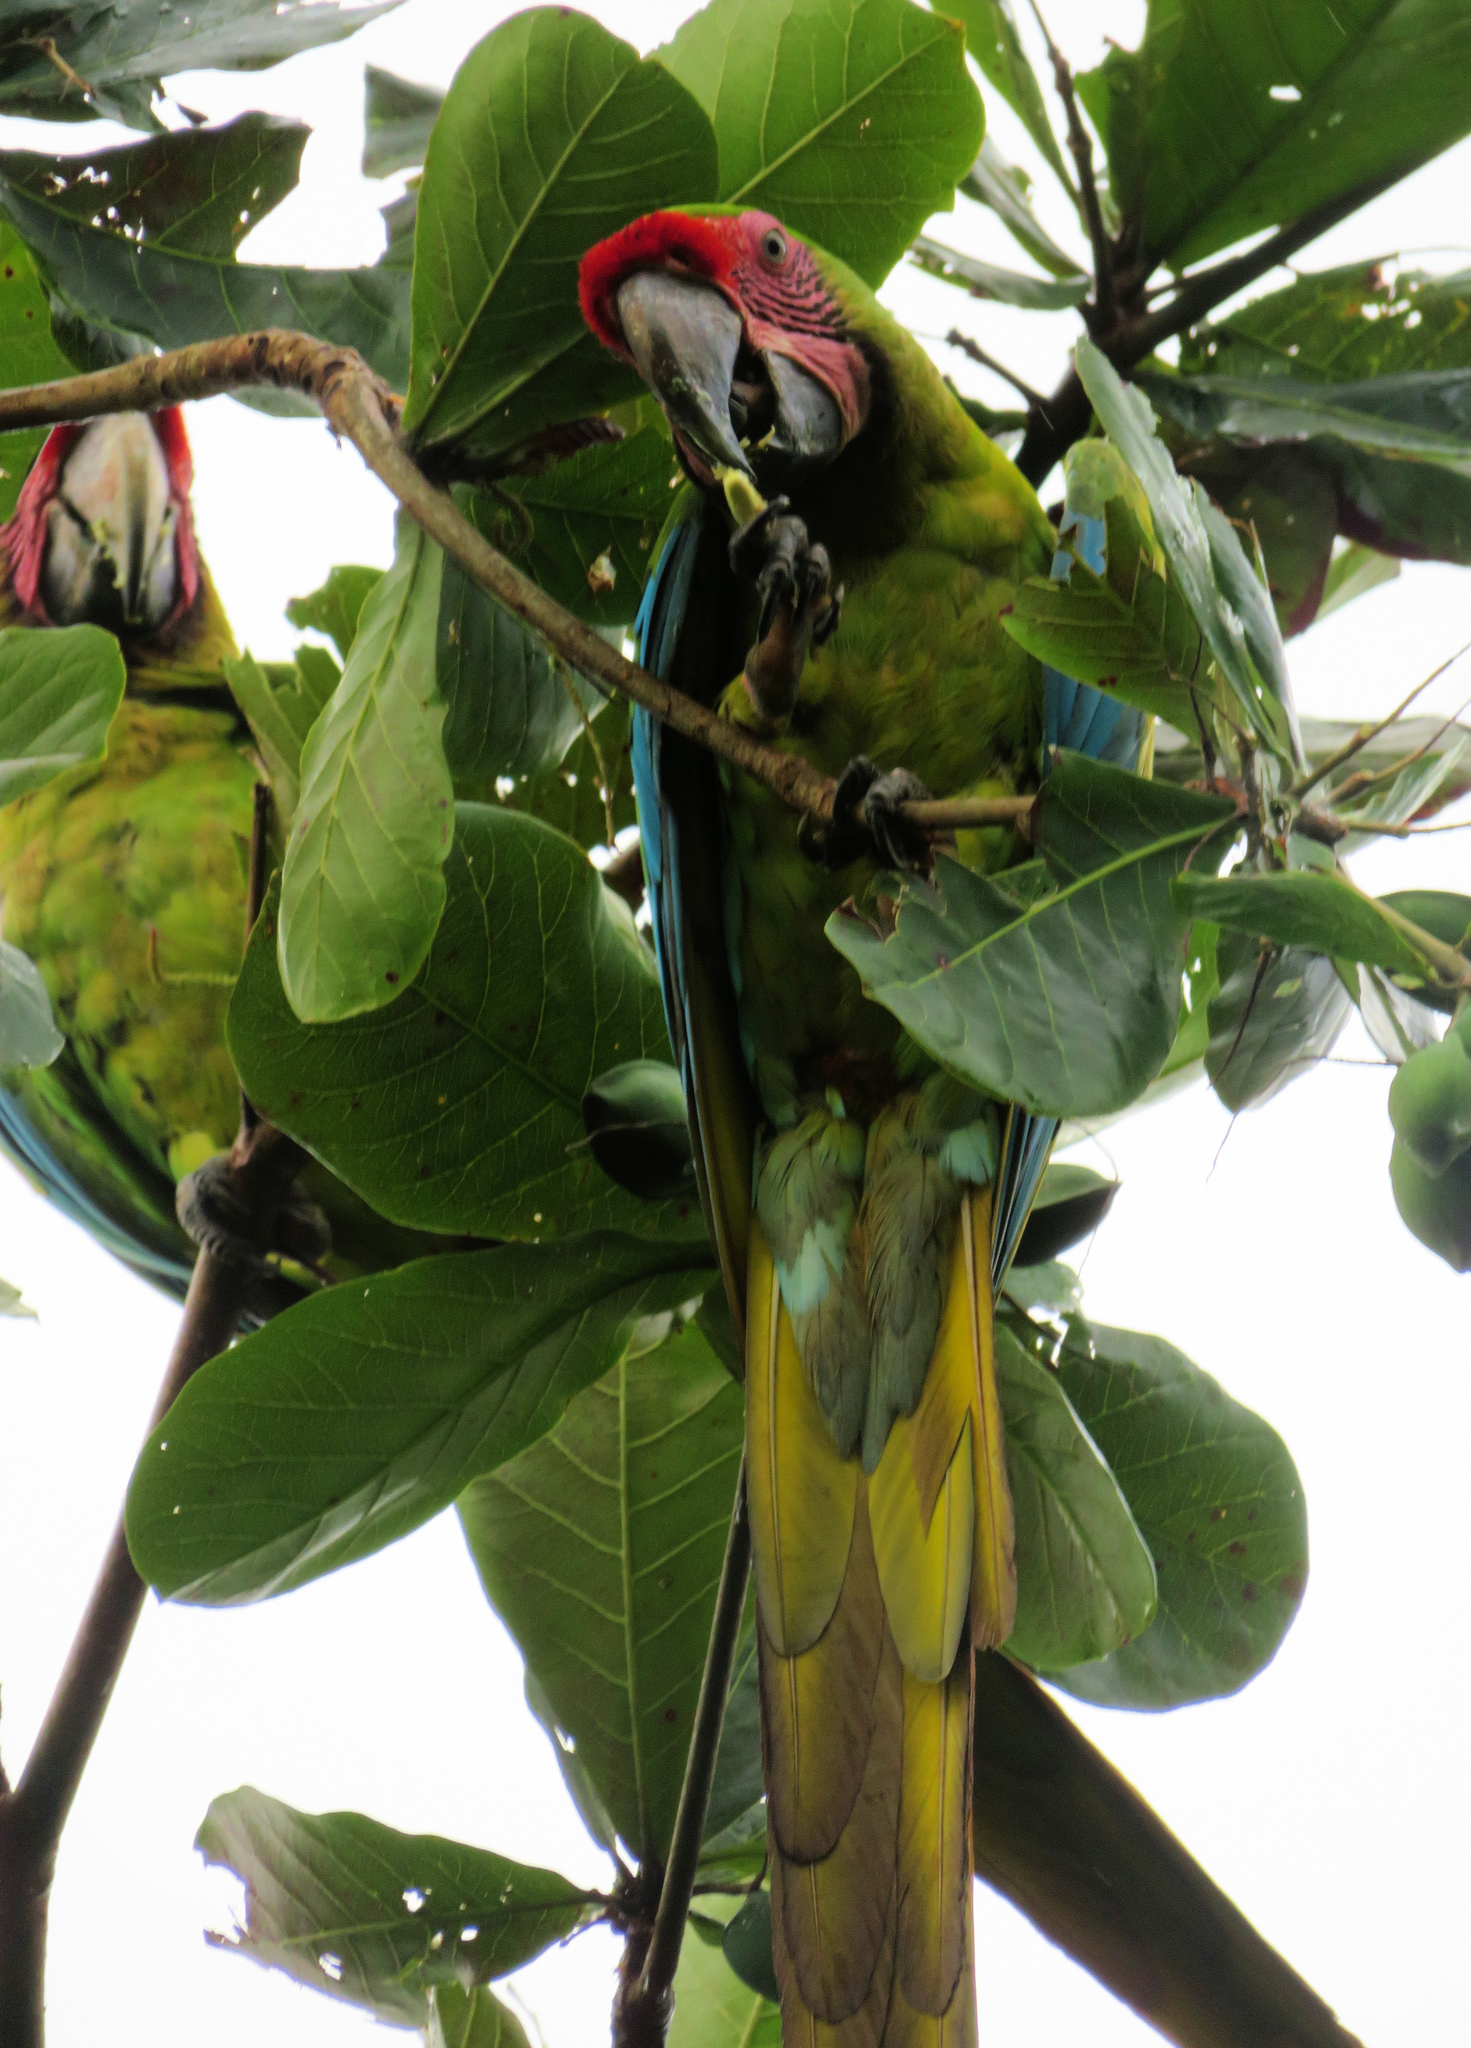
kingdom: Animalia
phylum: Chordata
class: Aves
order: Psittaciformes
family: Psittacidae
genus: Ara
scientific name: Ara ambiguus
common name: Great green macaw
